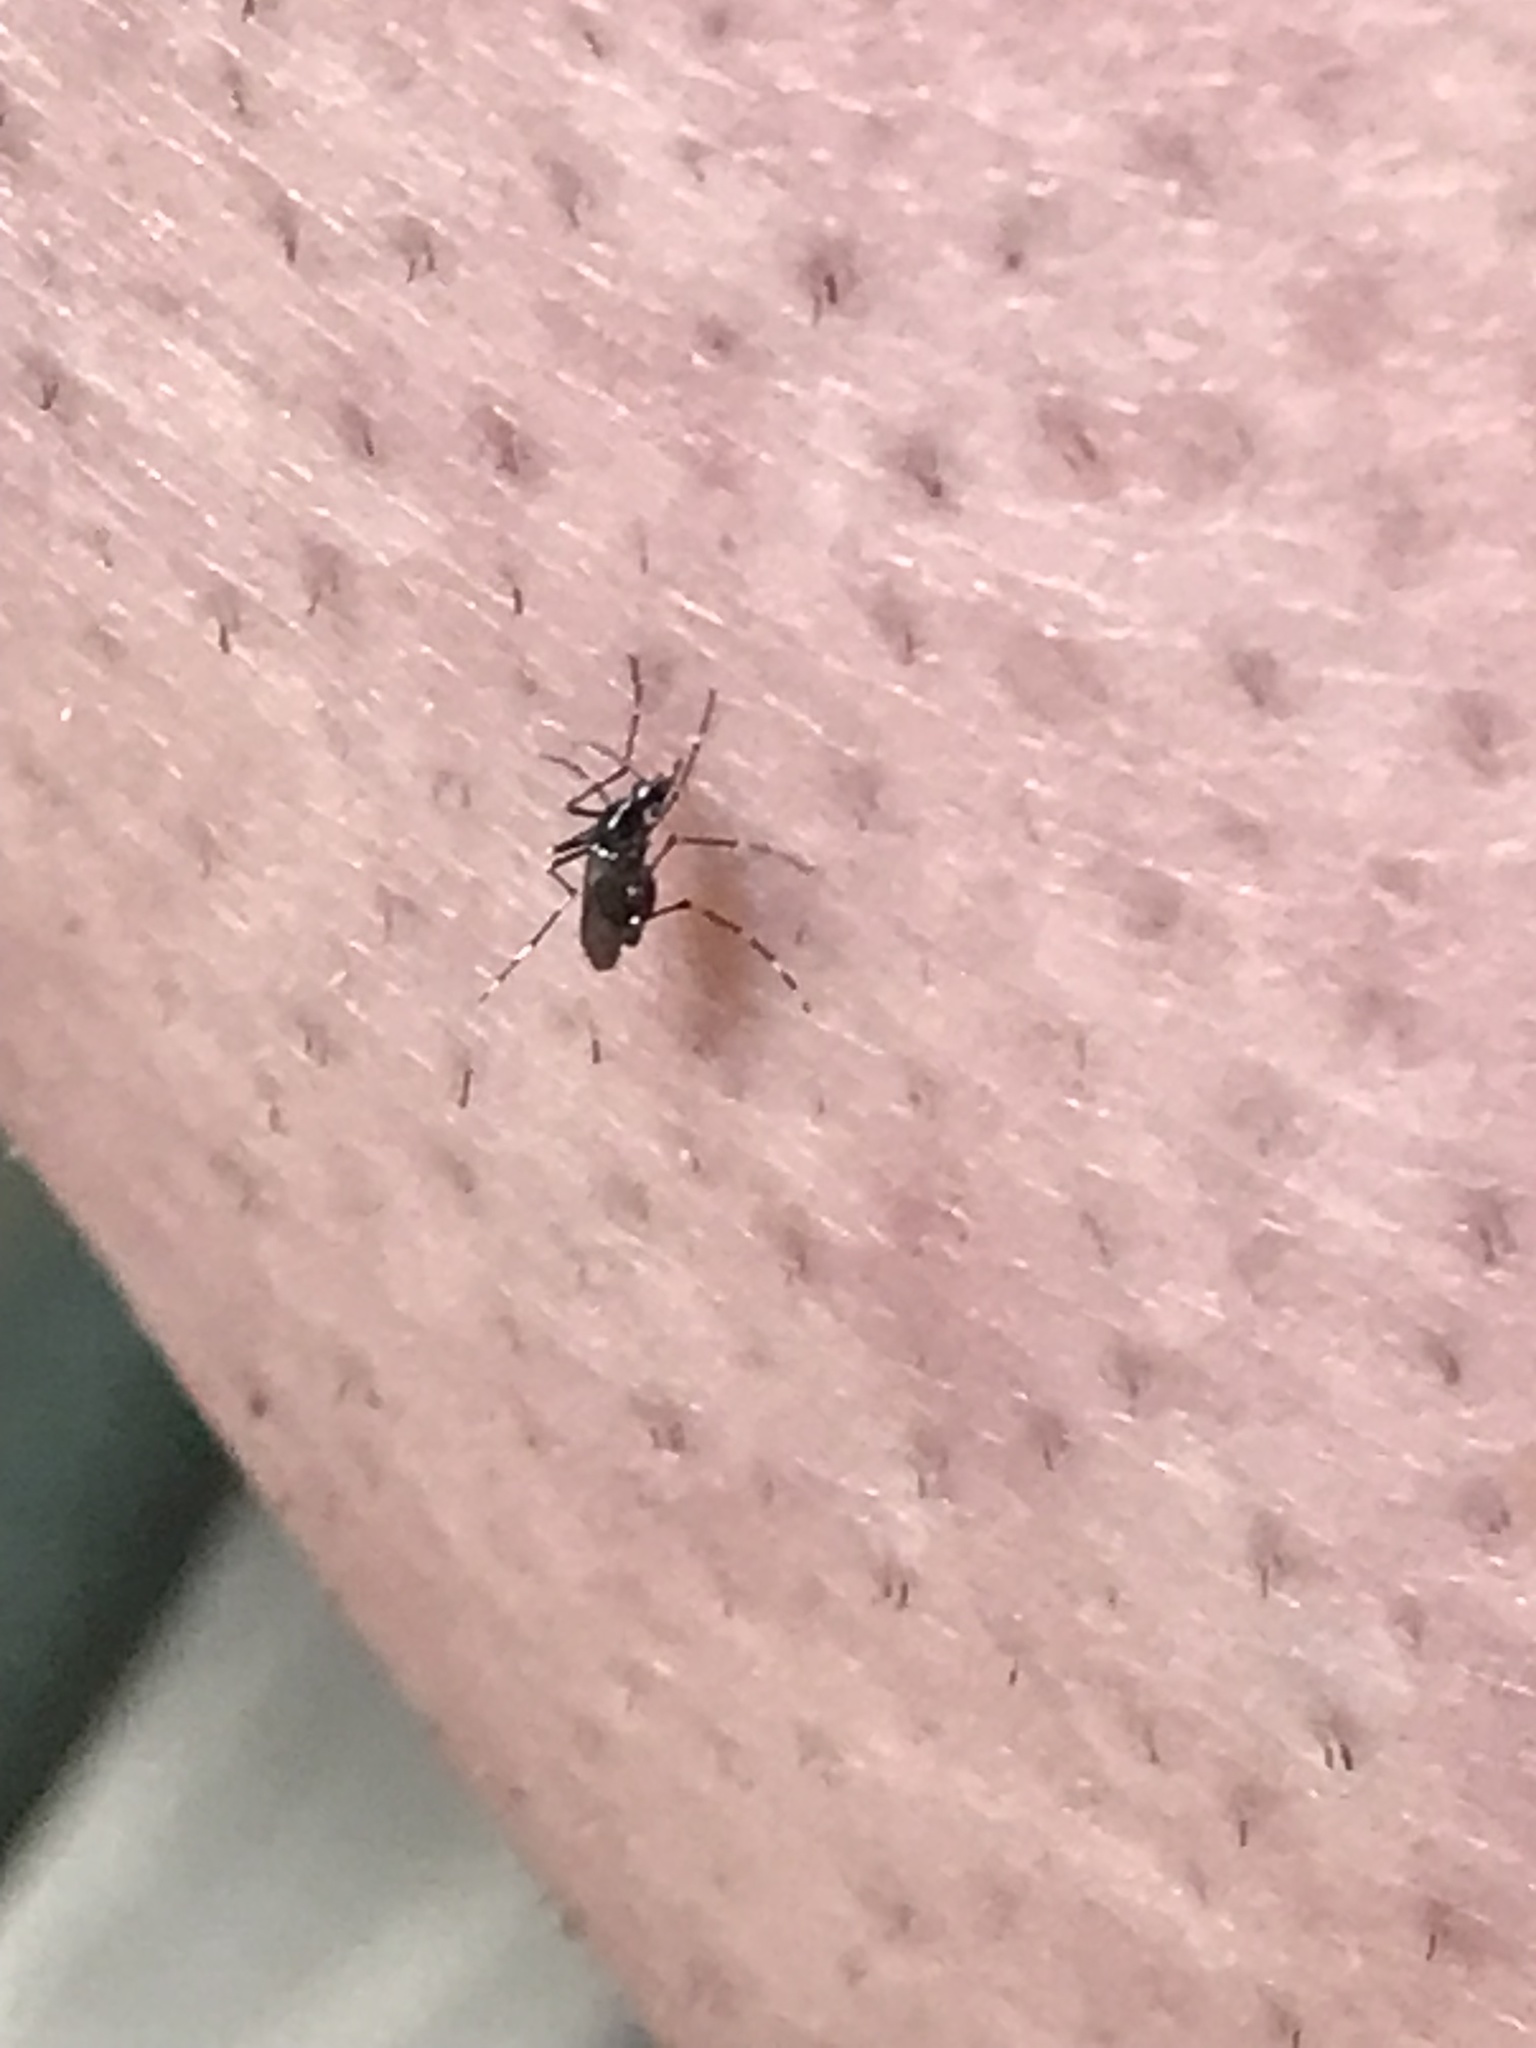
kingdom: Animalia
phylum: Arthropoda
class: Insecta
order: Diptera
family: Culicidae
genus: Aedes
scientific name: Aedes albopictus
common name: Tiger mosquito
